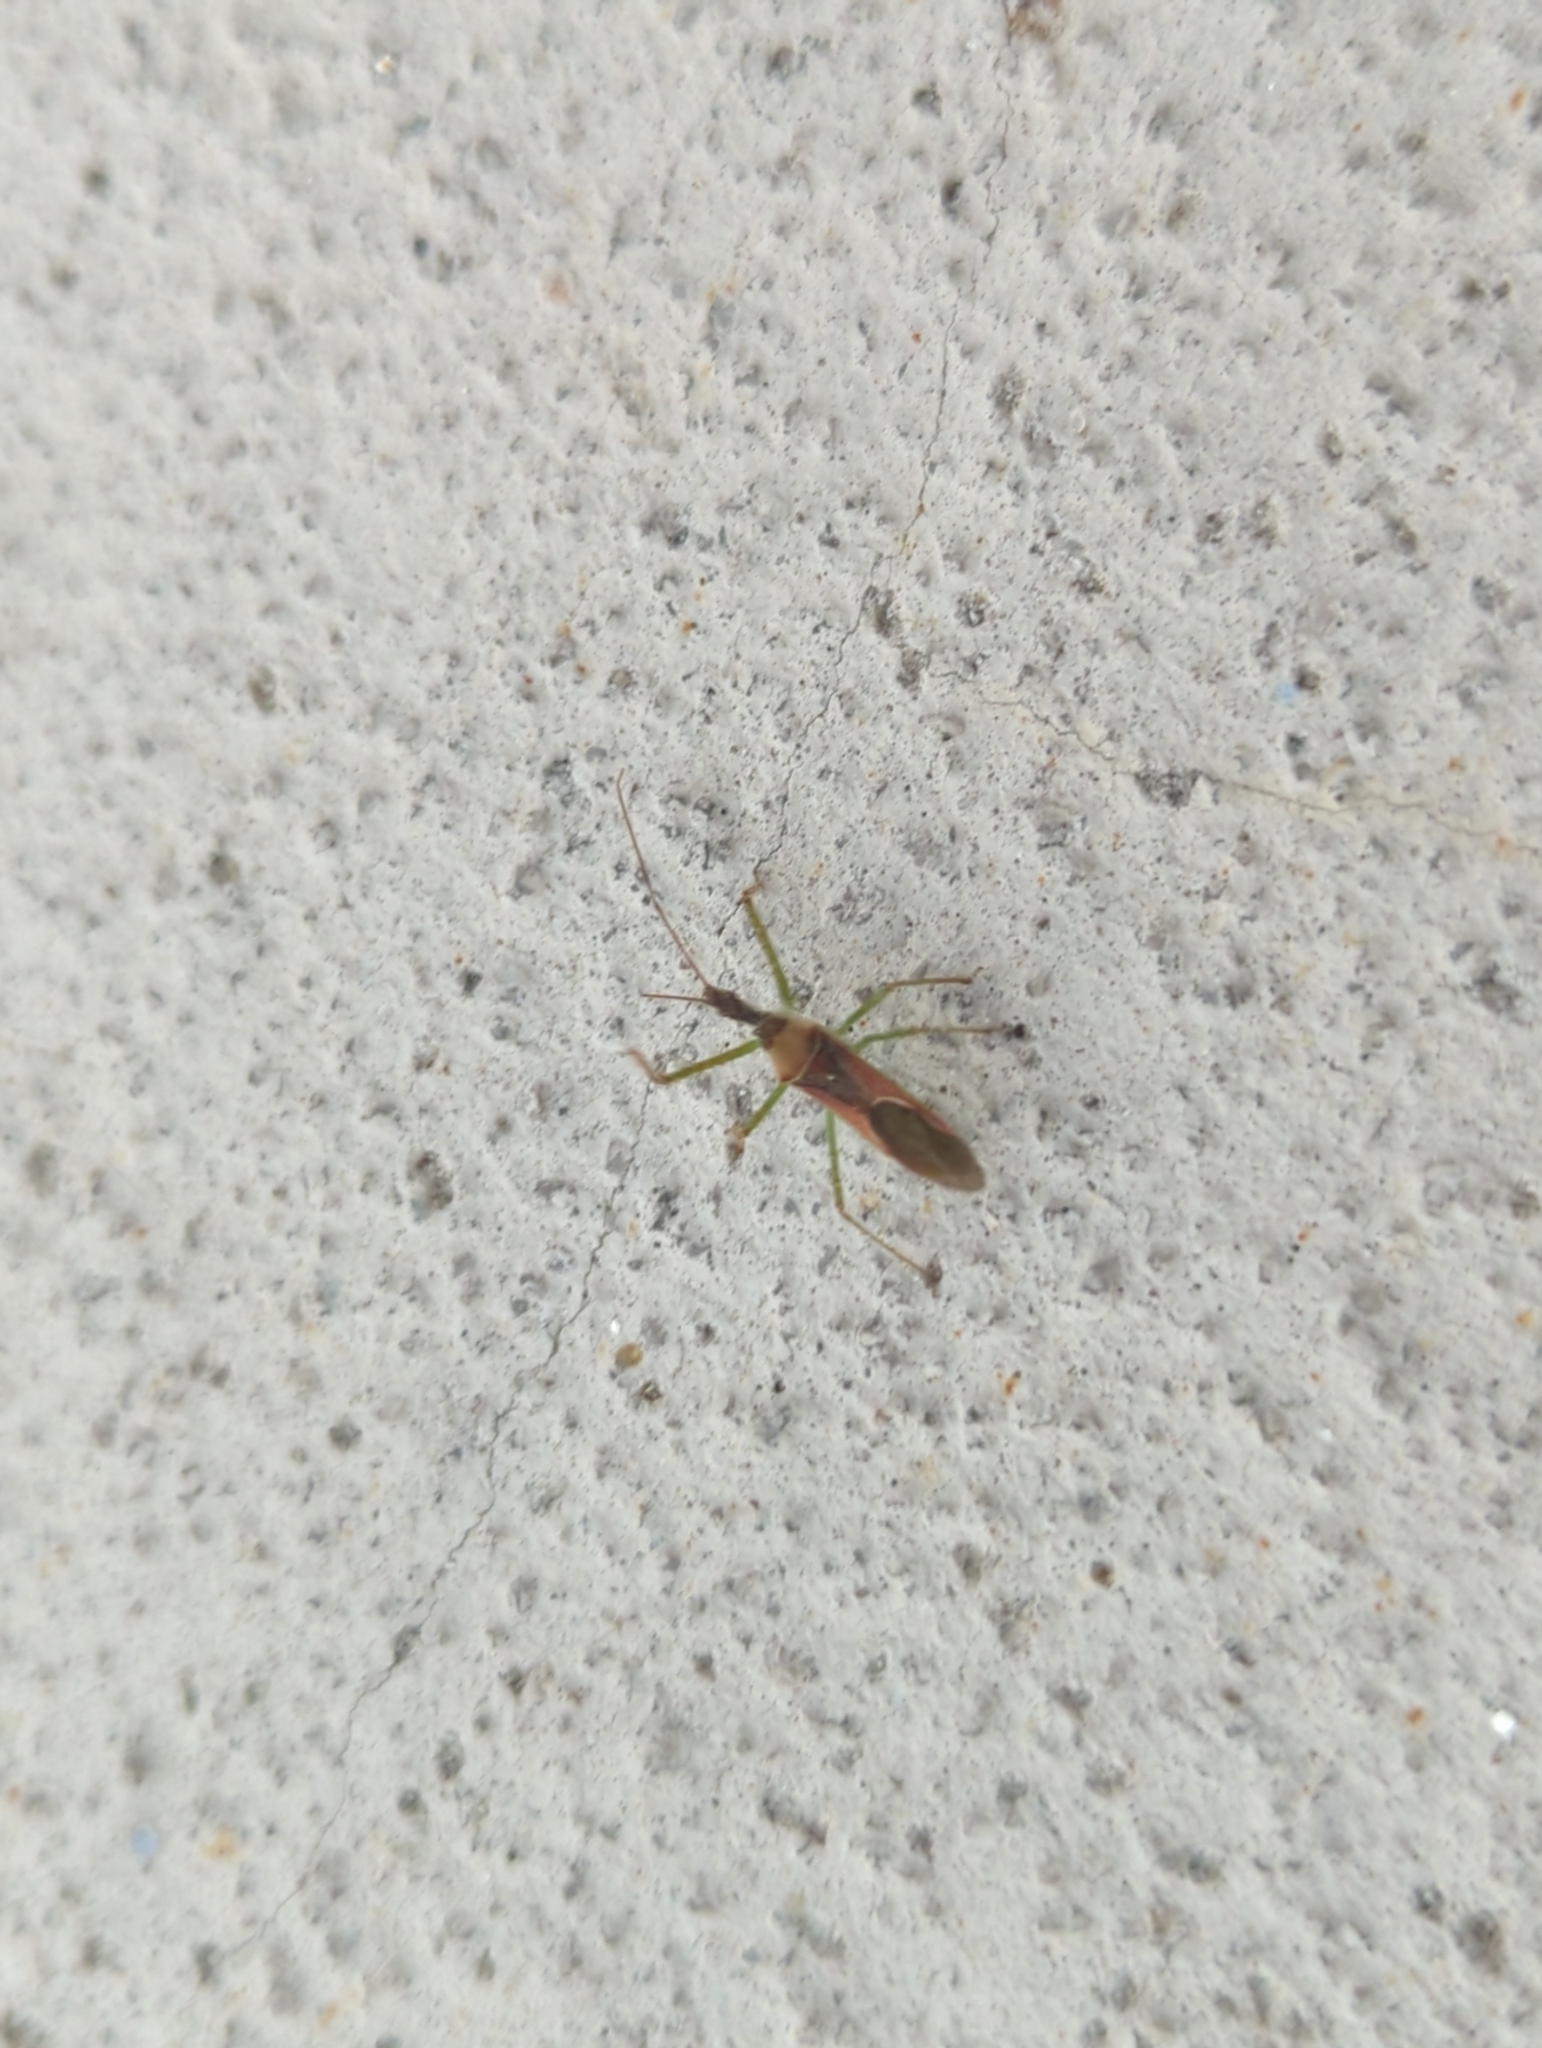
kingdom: Animalia
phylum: Arthropoda
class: Insecta
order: Hemiptera
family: Reduviidae
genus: Zelus
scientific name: Zelus renardii
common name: Assassin bug
